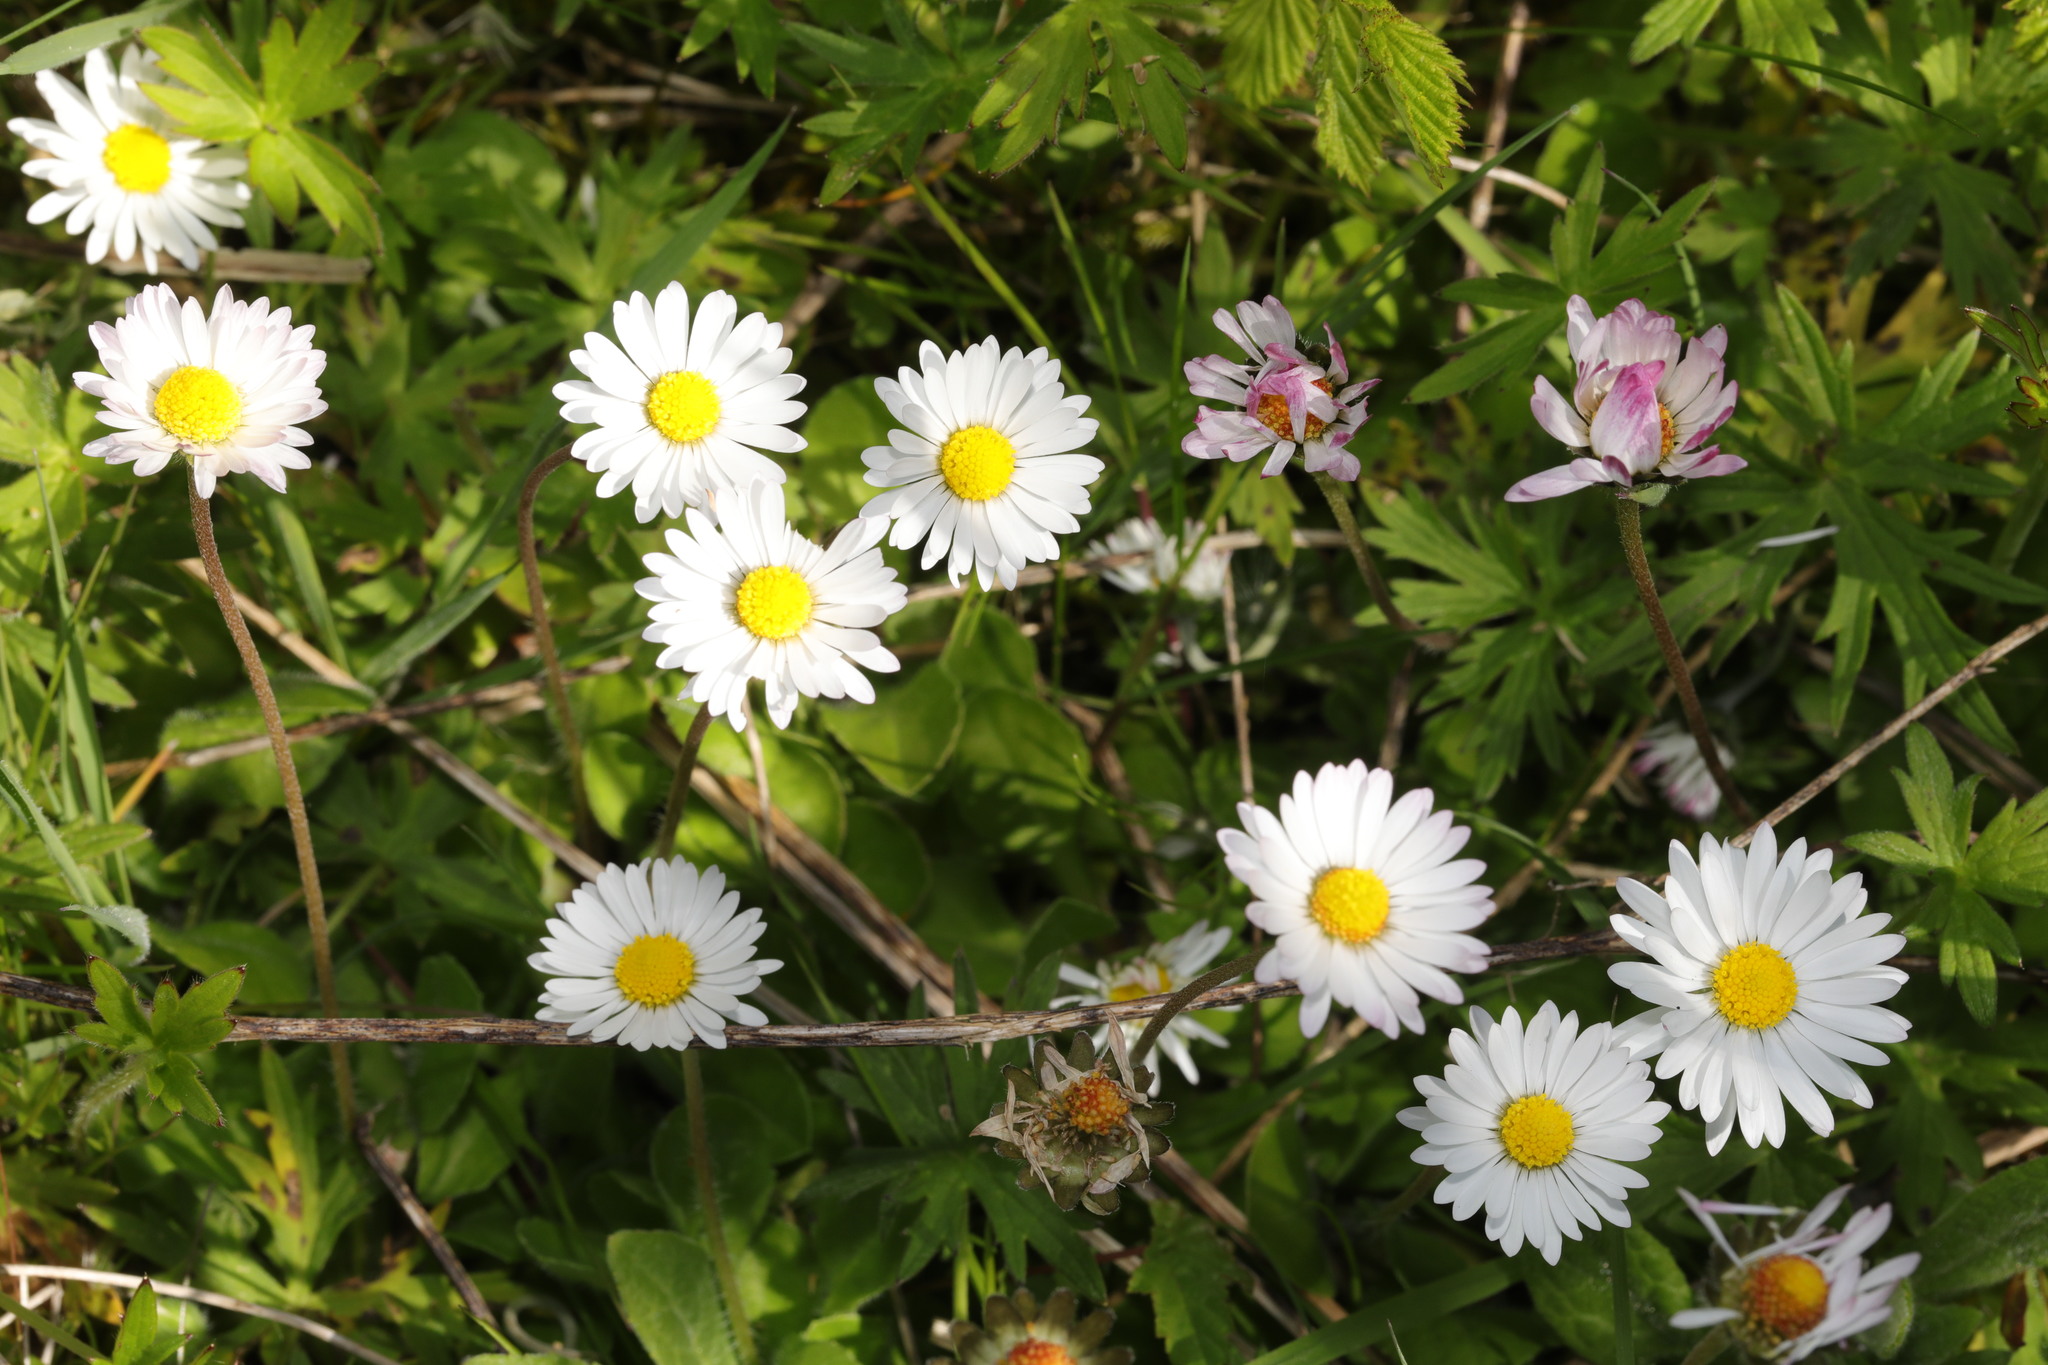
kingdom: Plantae
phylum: Tracheophyta
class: Magnoliopsida
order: Asterales
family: Asteraceae
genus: Bellis
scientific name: Bellis perennis
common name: Lawndaisy
